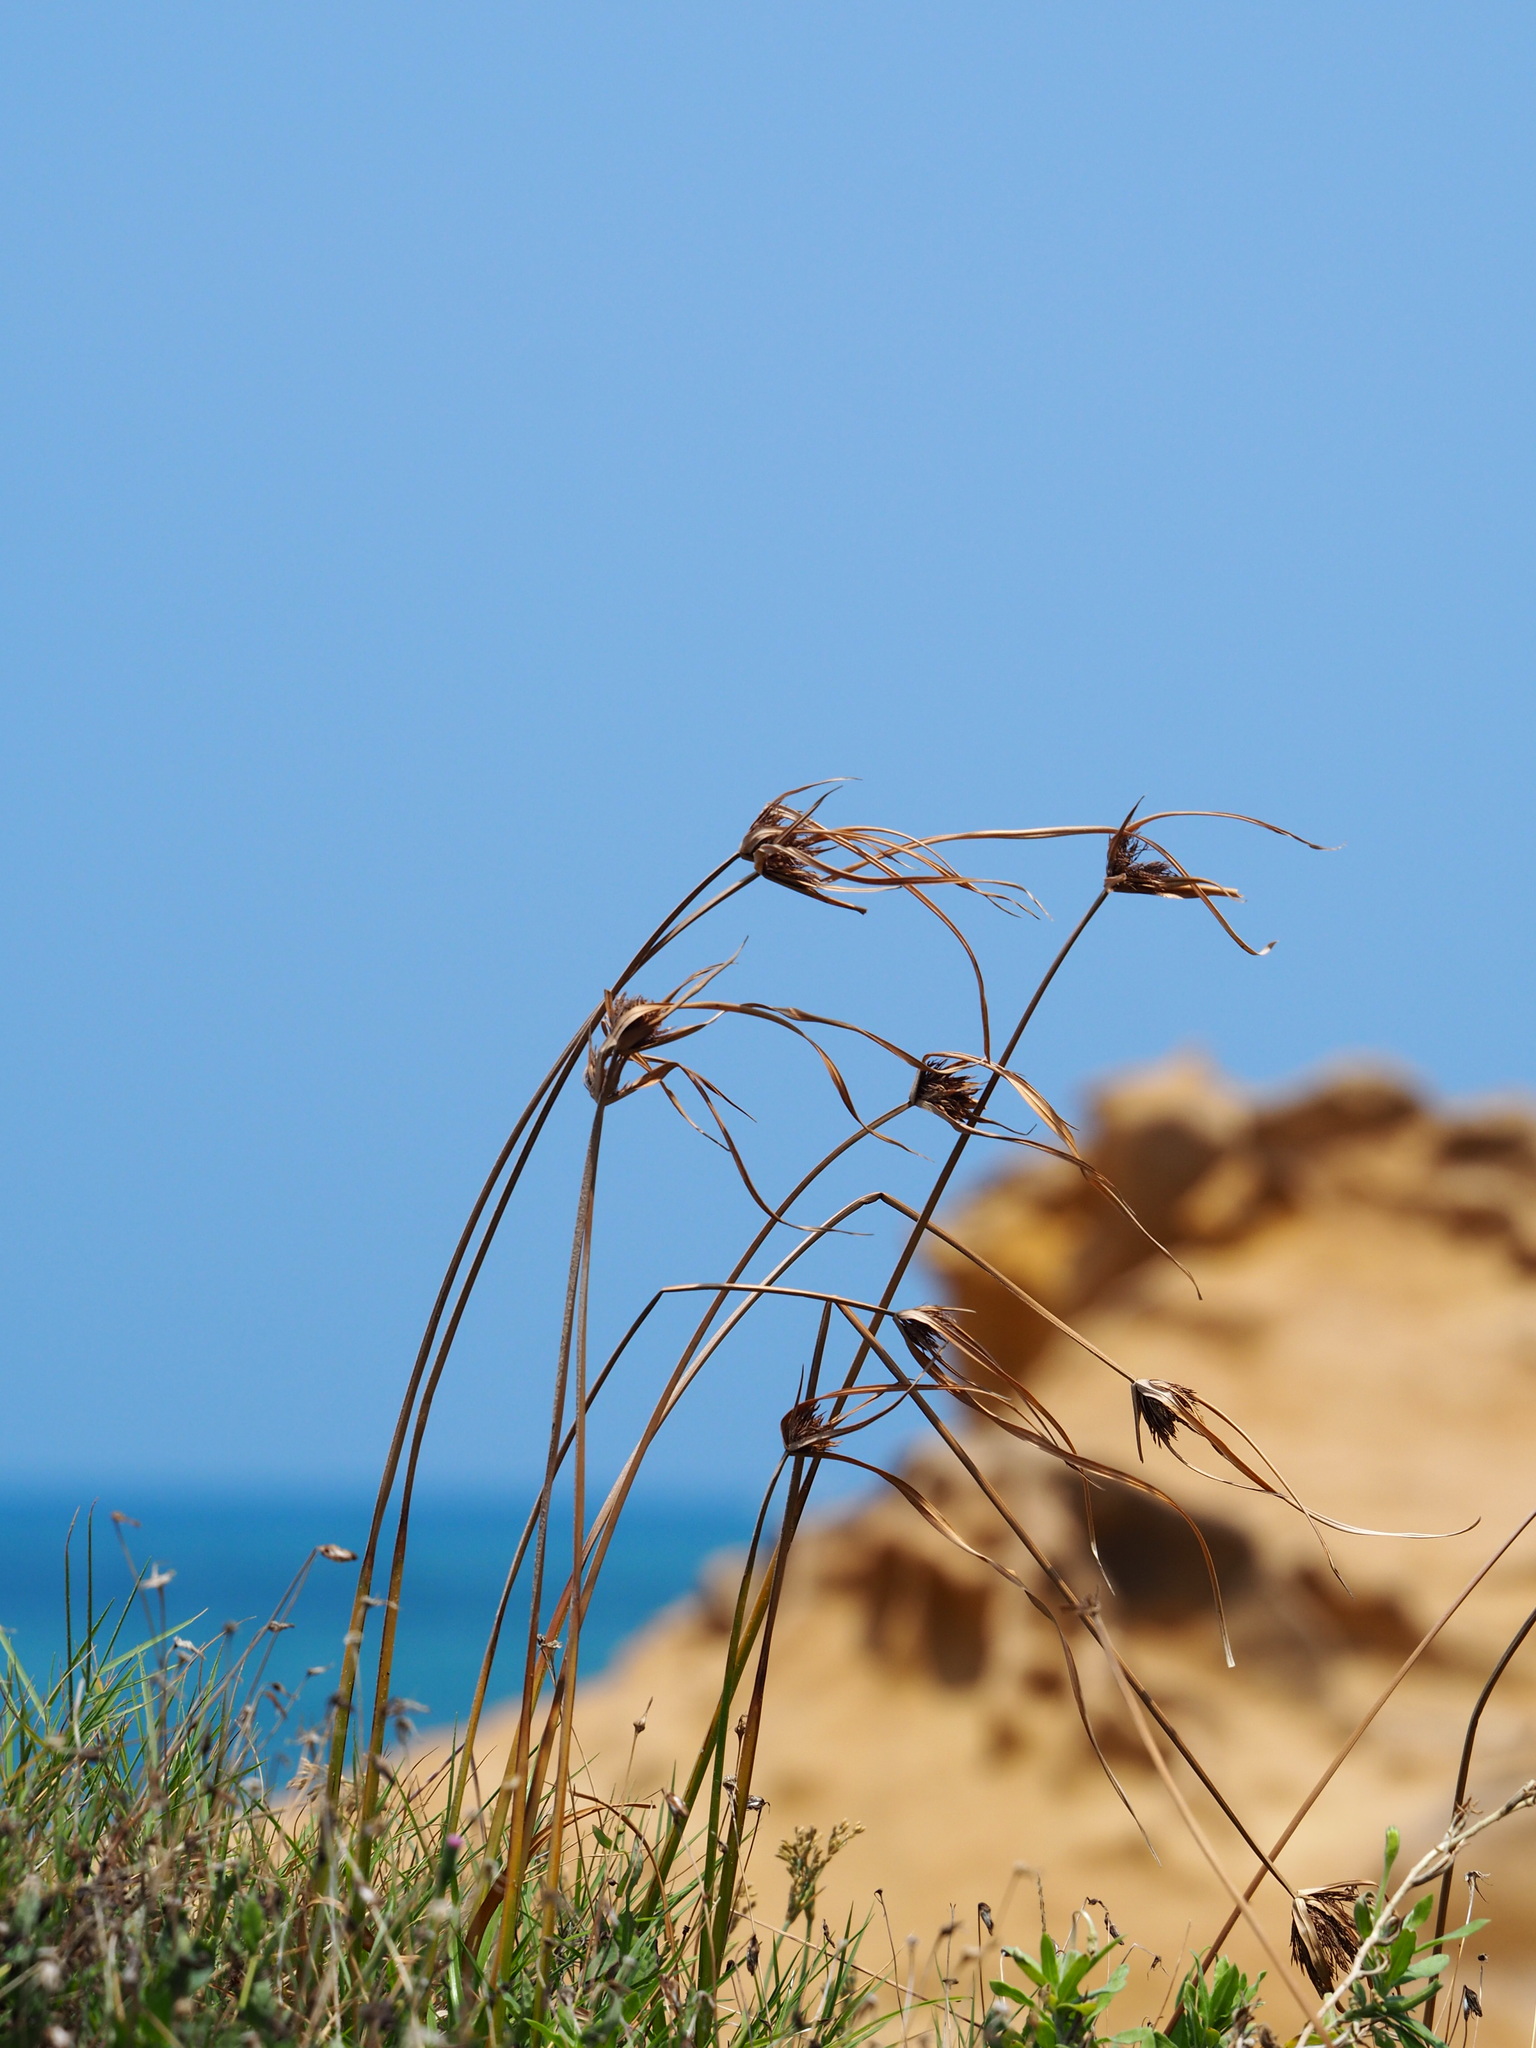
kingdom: Plantae
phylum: Tracheophyta
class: Liliopsida
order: Poales
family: Cyperaceae
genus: Cyperus
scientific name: Cyperus polystachyos
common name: Bunchy flat sedge
